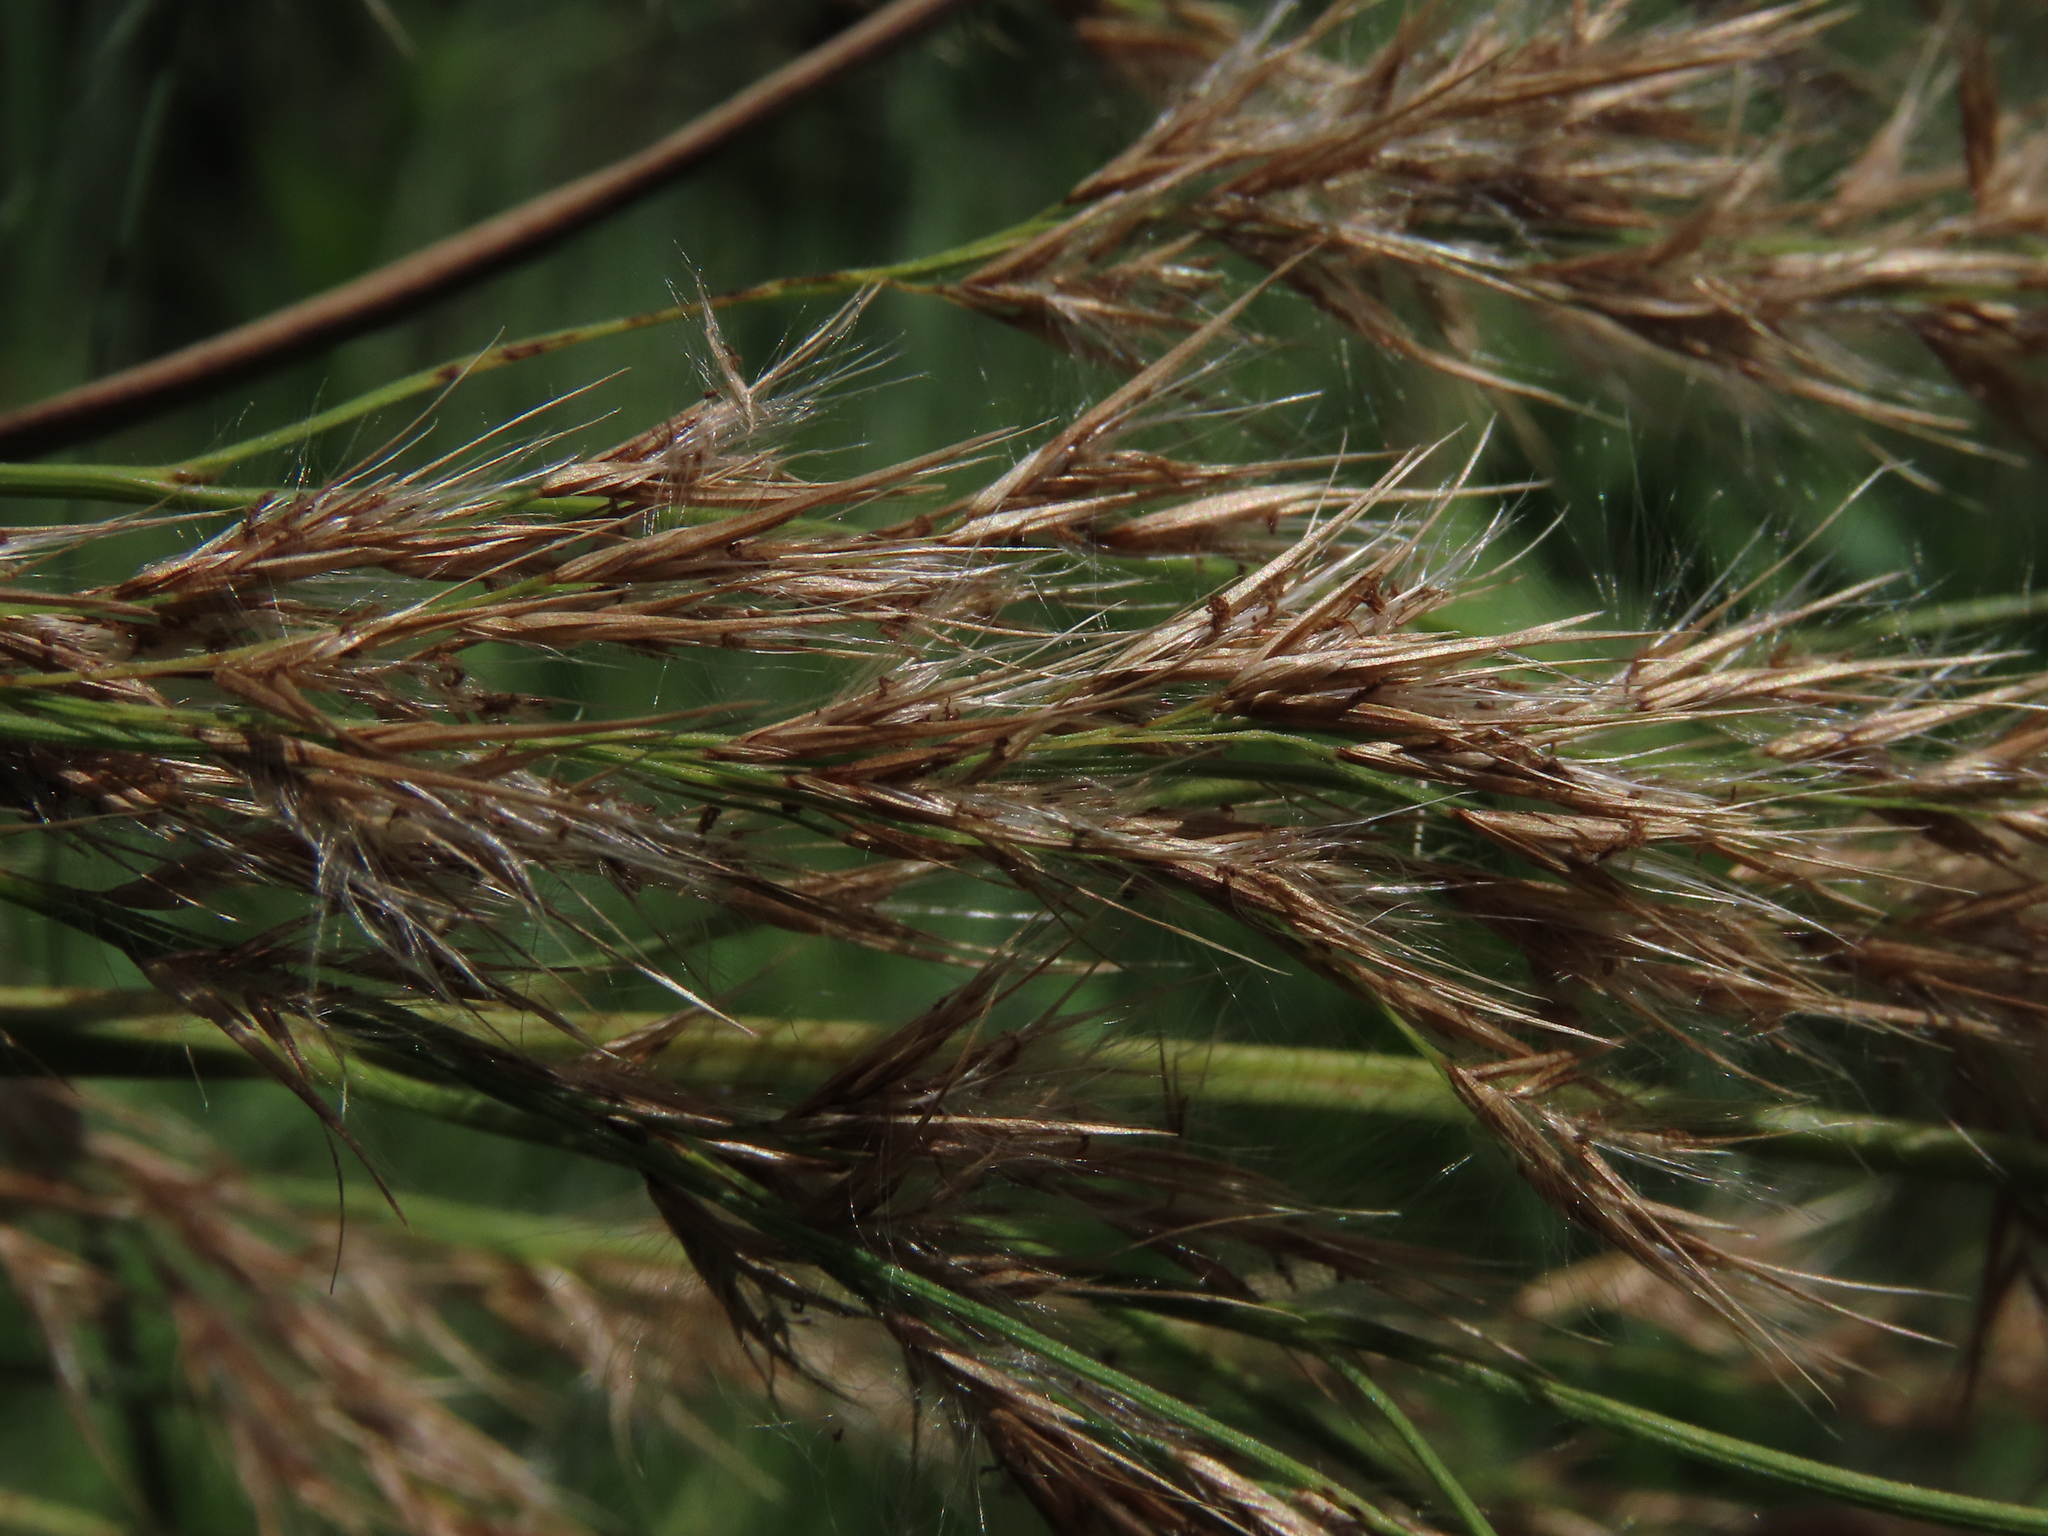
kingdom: Plantae
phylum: Tracheophyta
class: Liliopsida
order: Poales
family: Poaceae
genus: Phragmites
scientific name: Phragmites karka
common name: Tropical reed
